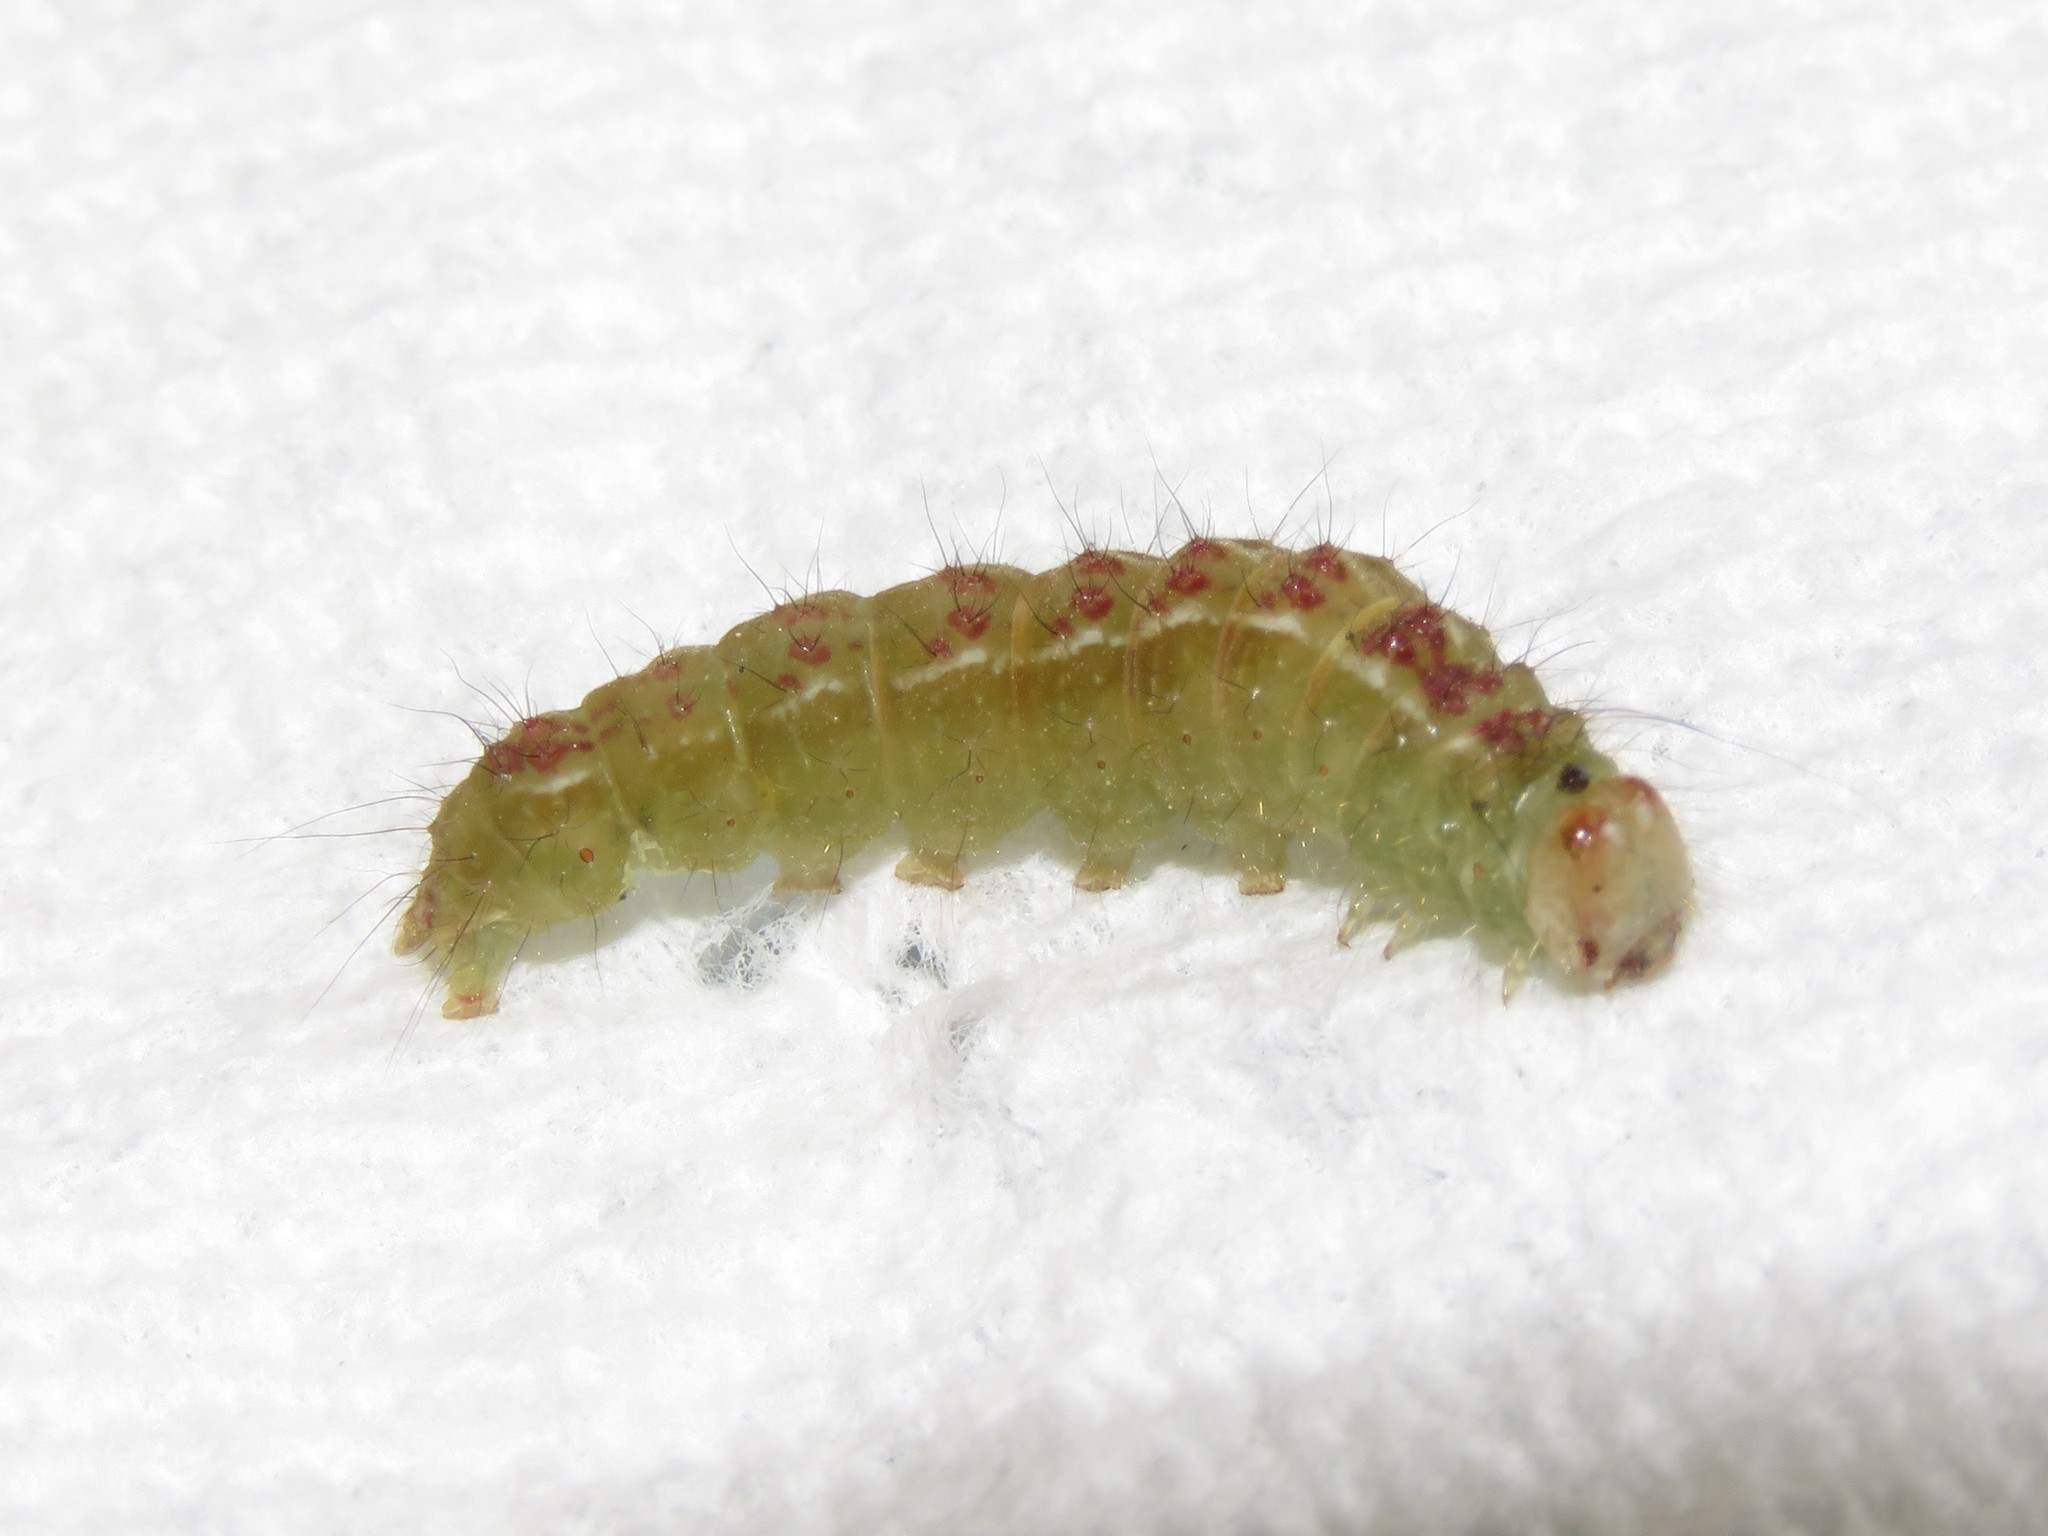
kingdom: Animalia
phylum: Arthropoda
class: Insecta
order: Lepidoptera
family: Noctuidae
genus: Acronicta
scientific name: Acronicta fragilis
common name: Fragile dagger
